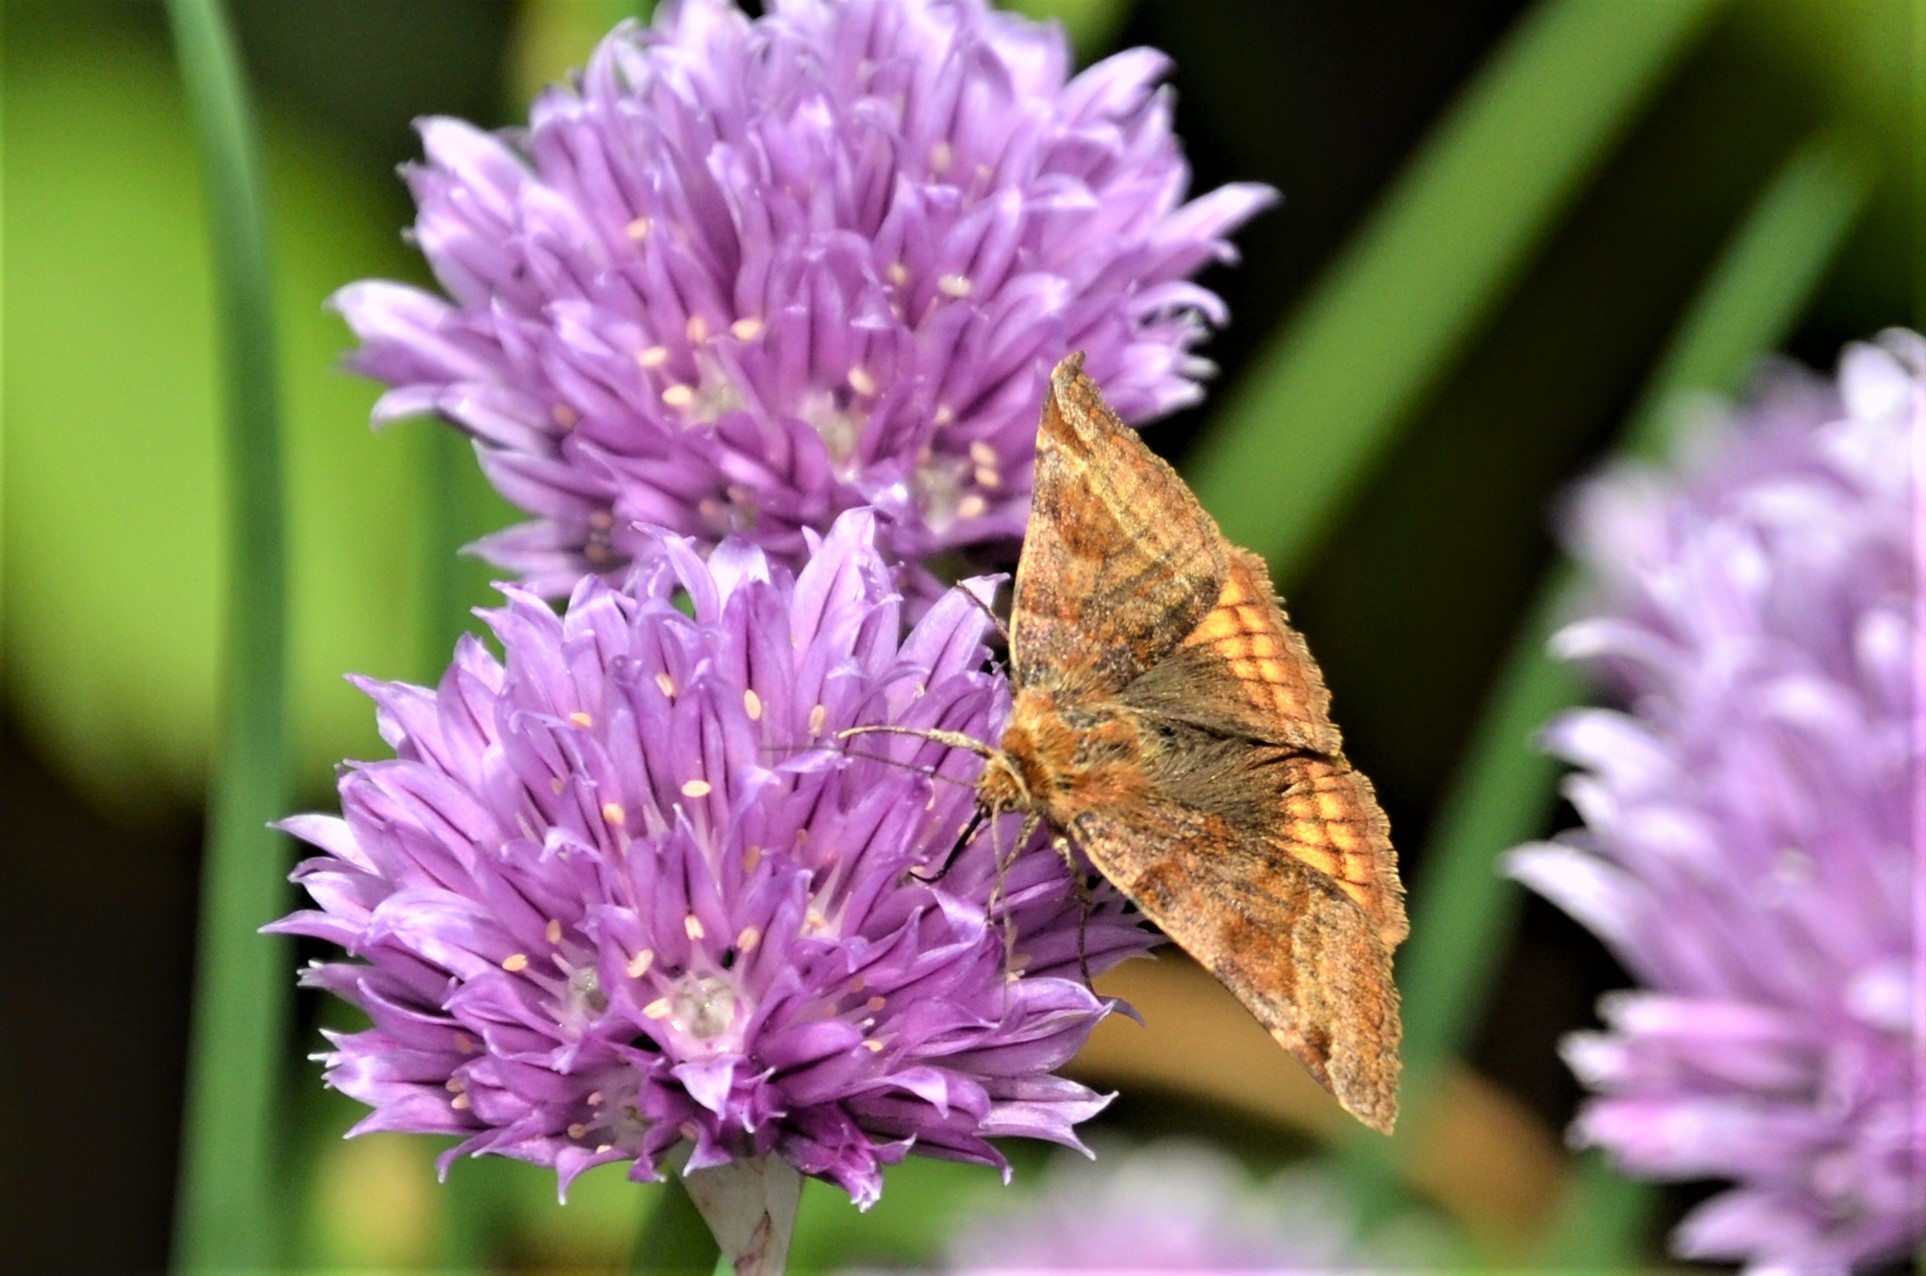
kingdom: Animalia
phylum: Arthropoda
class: Insecta
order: Lepidoptera
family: Erebidae
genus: Euclidia
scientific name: Euclidia glyphica
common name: Burnet companion
